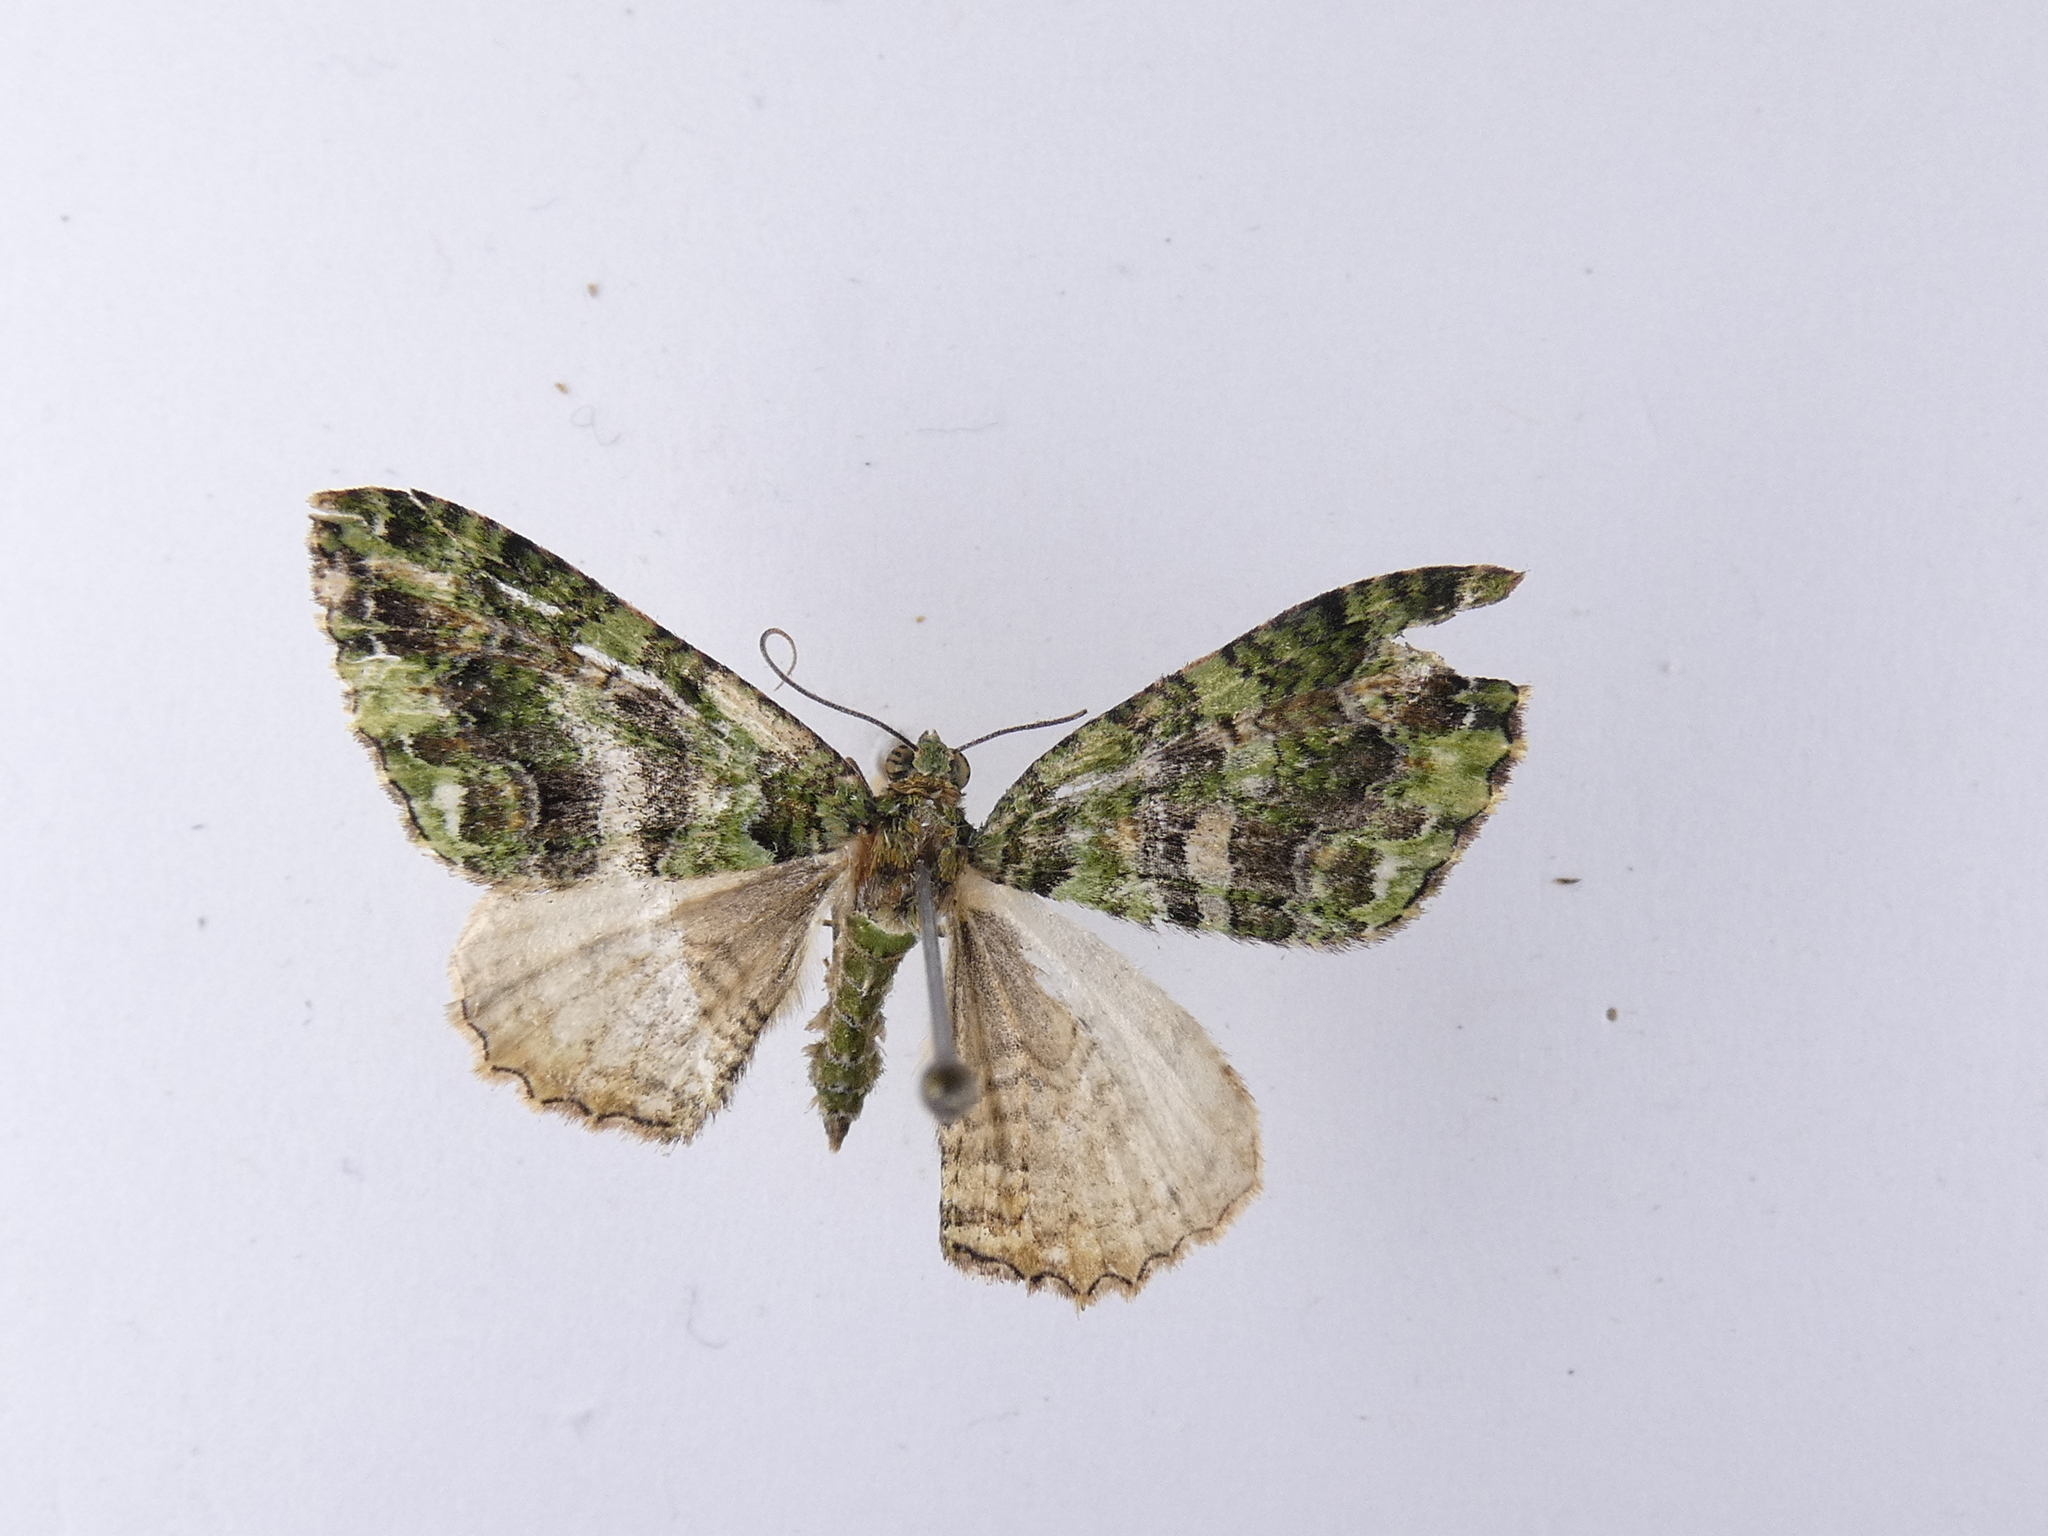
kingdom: Animalia
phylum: Arthropoda
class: Insecta
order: Lepidoptera
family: Geometridae
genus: Austrocidaria
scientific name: Austrocidaria similata
